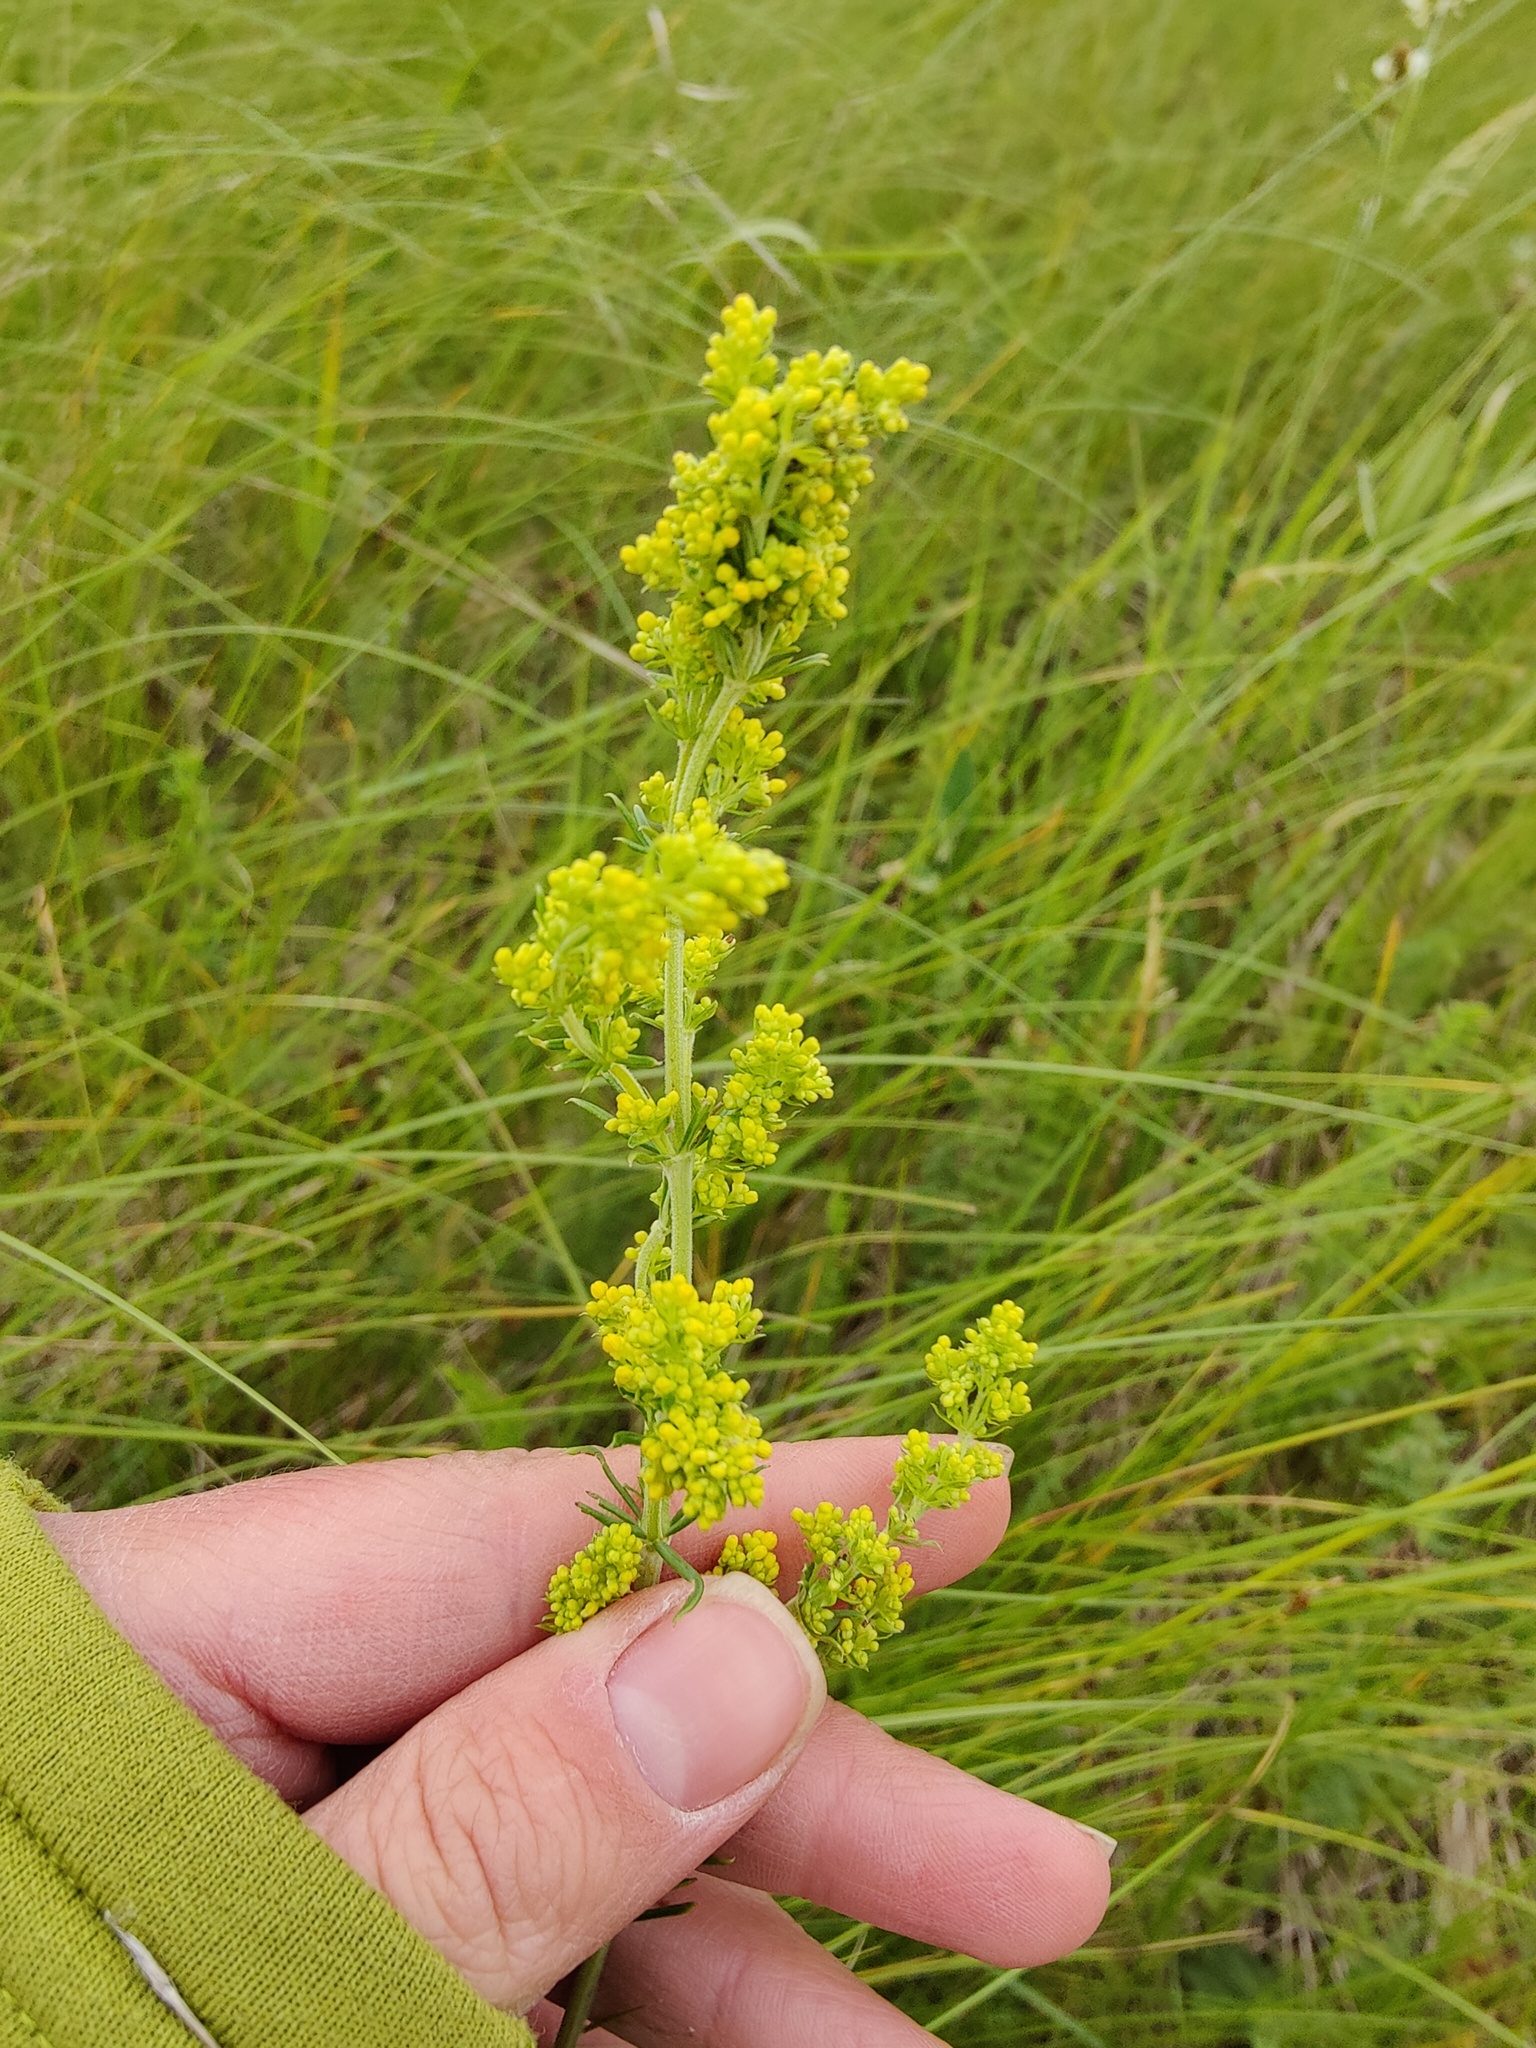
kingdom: Plantae
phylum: Tracheophyta
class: Magnoliopsida
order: Gentianales
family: Rubiaceae
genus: Galium
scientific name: Galium verum
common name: Lady's bedstraw
